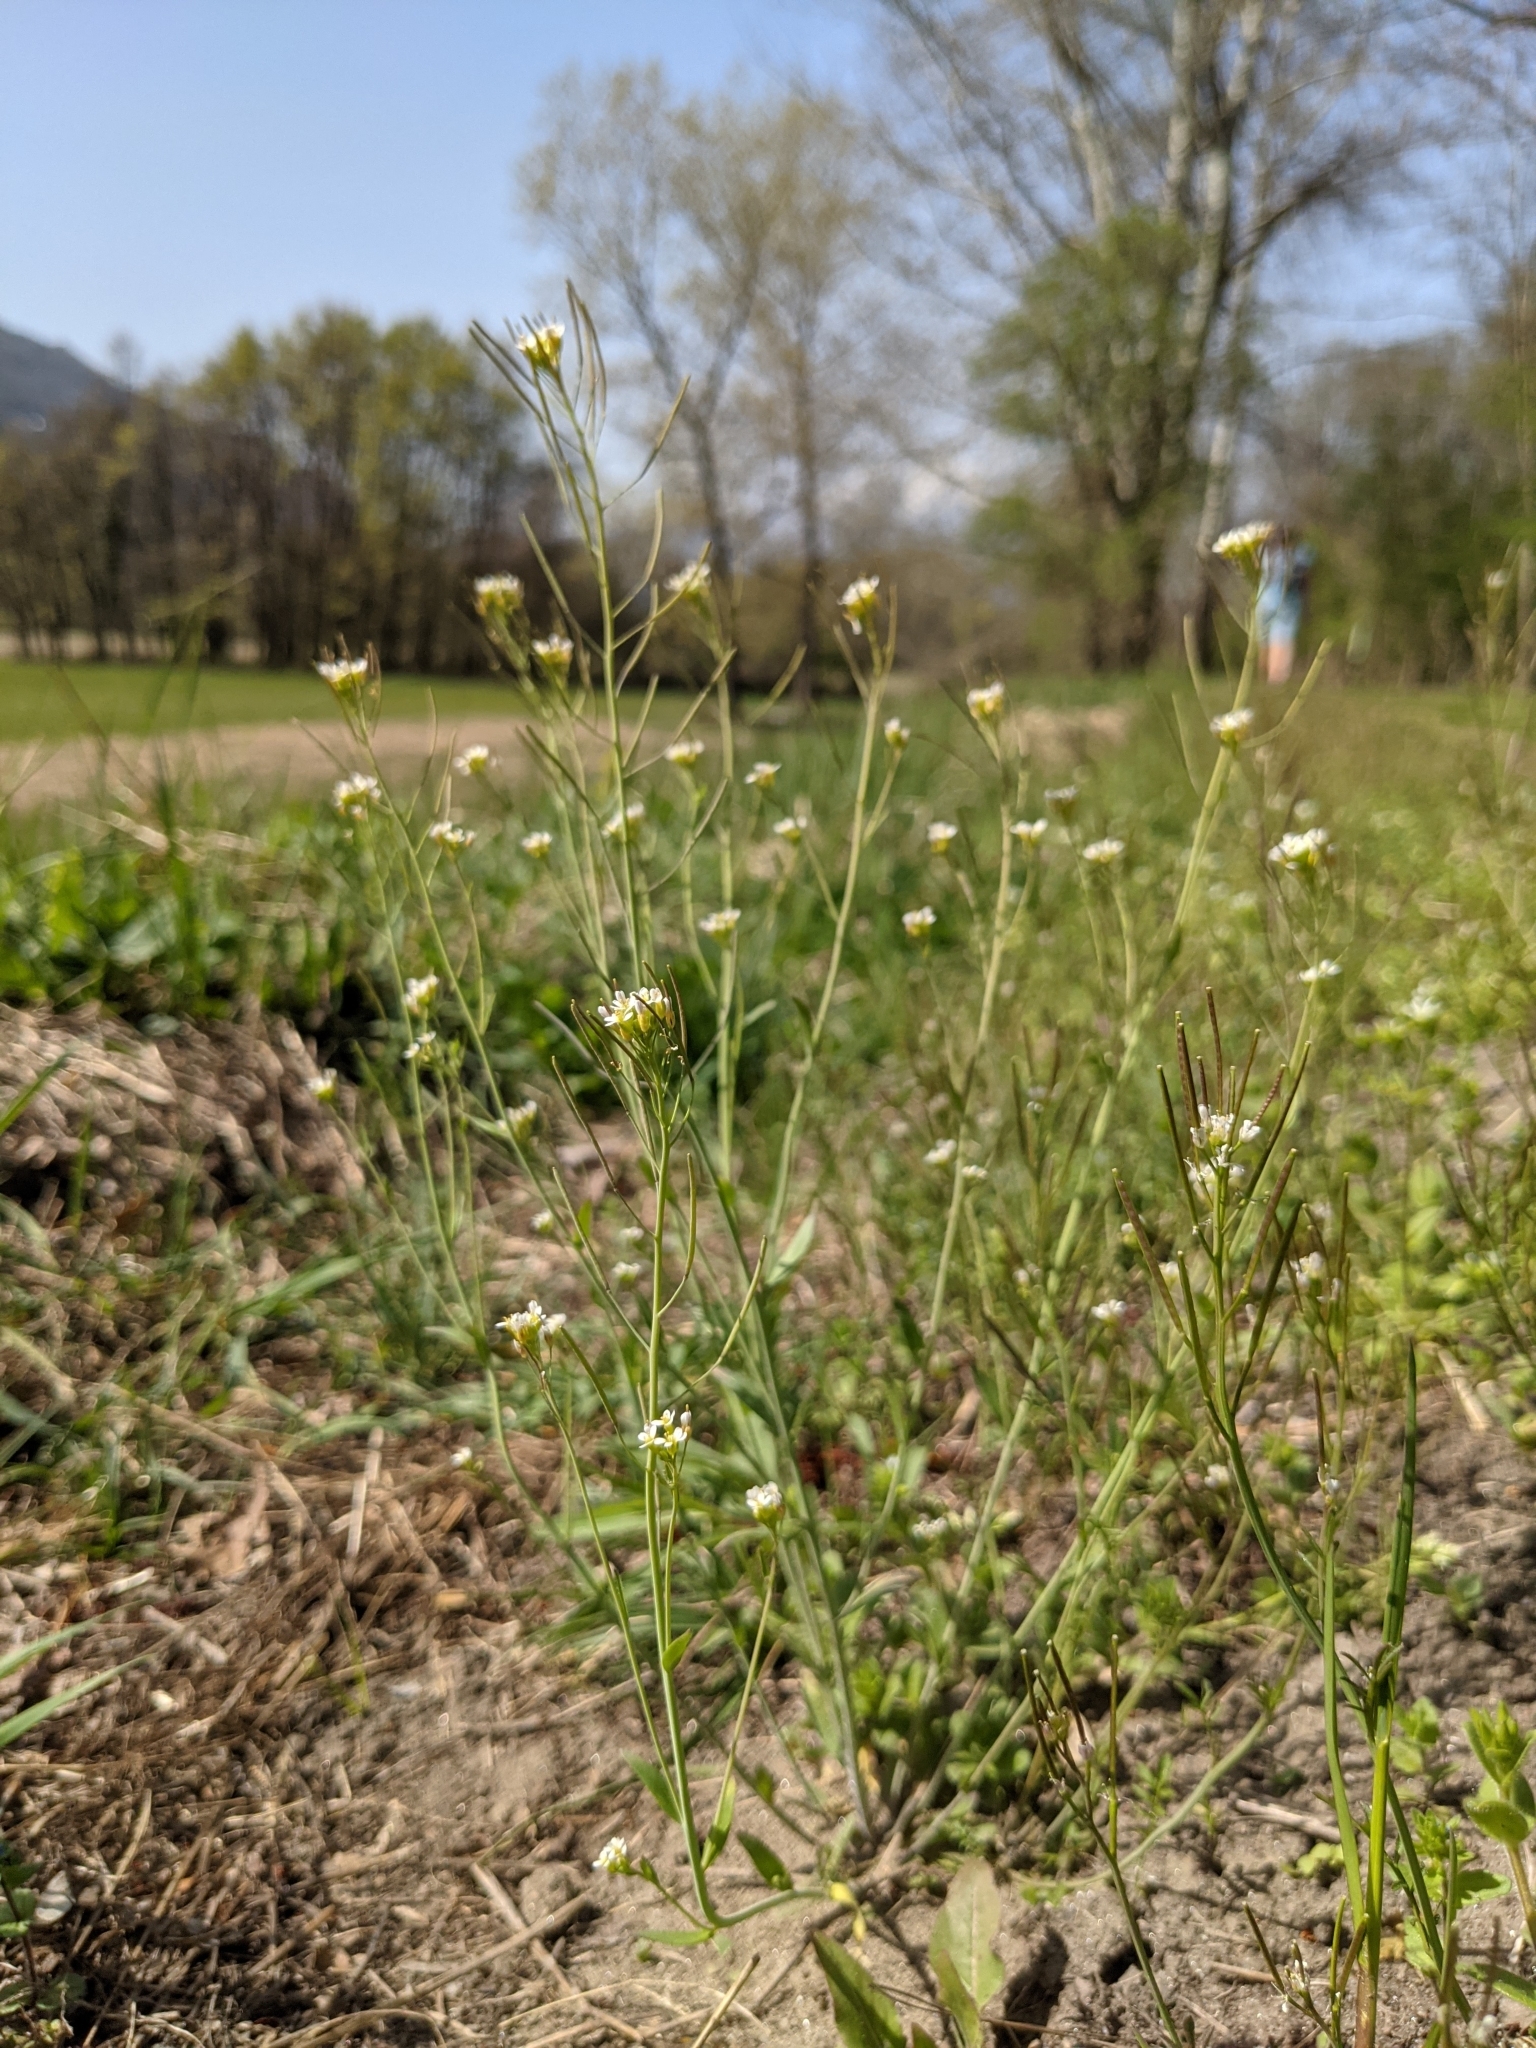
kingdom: Plantae
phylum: Tracheophyta
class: Magnoliopsida
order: Brassicales
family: Brassicaceae
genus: Arabidopsis
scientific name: Arabidopsis thaliana
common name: Thale cress
